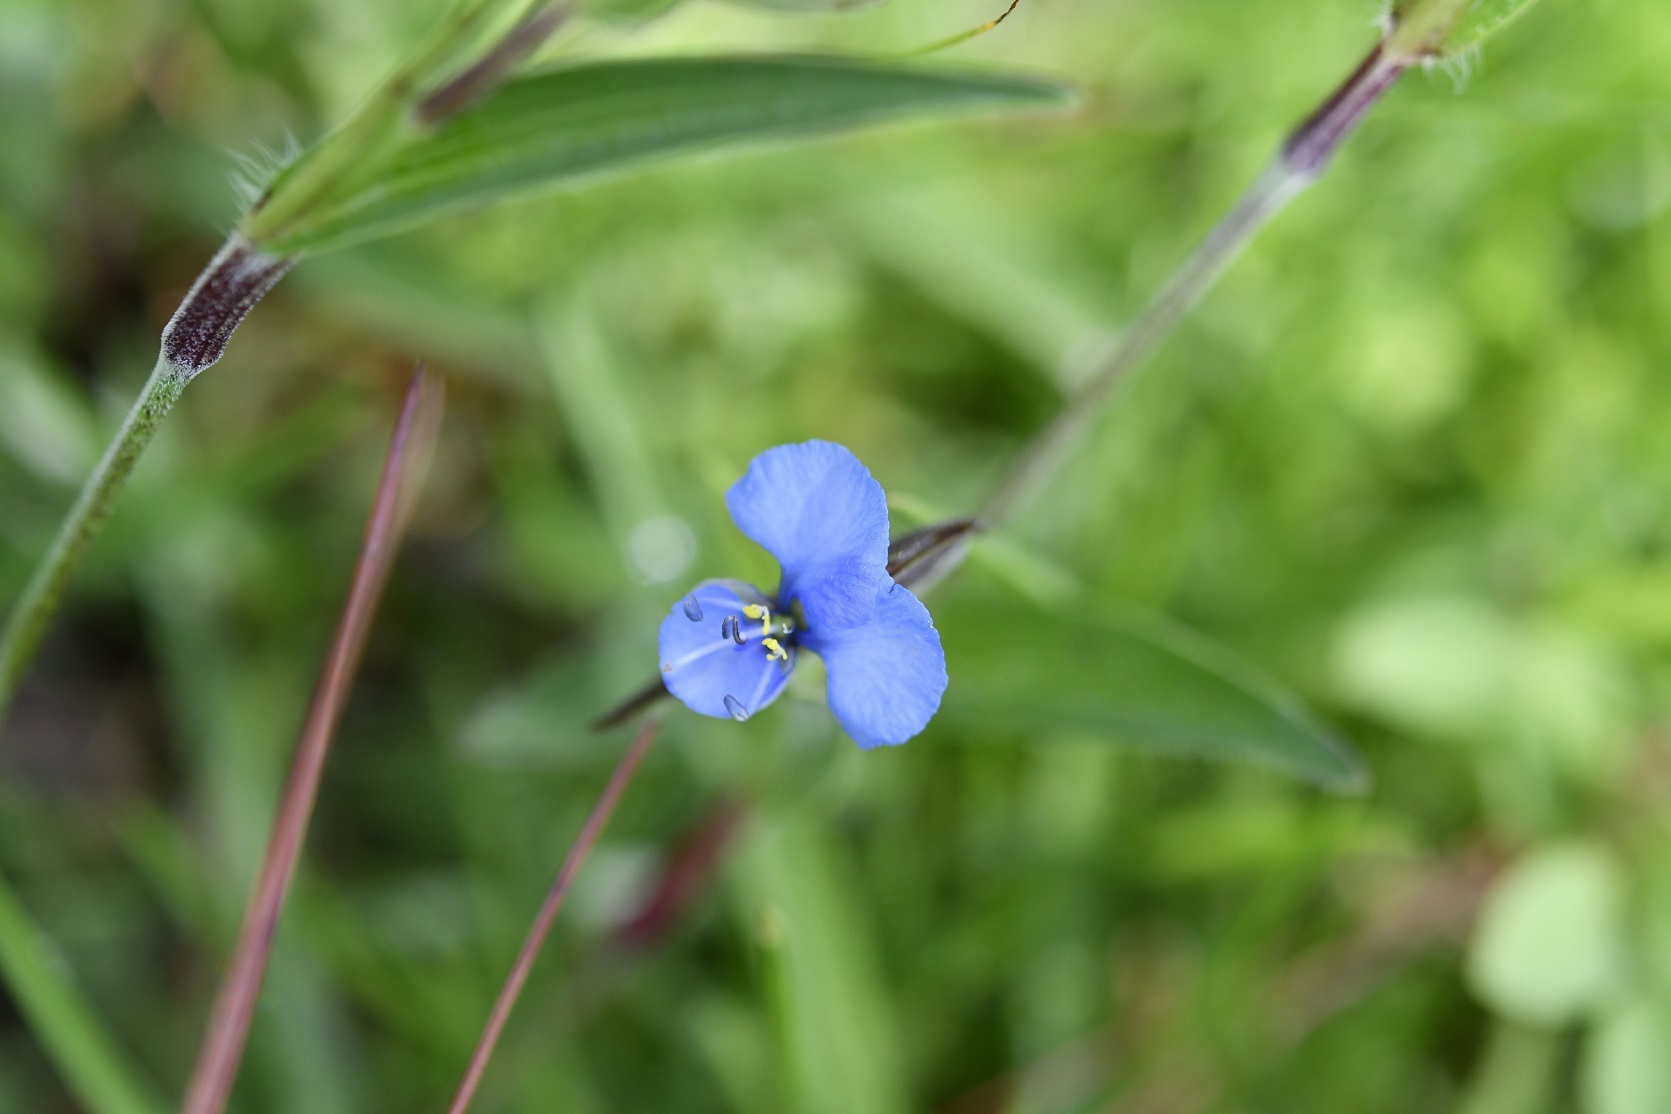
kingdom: Plantae
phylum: Tracheophyta
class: Liliopsida
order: Commelinales
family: Commelinaceae
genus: Commelina
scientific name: Commelina tuberosa
